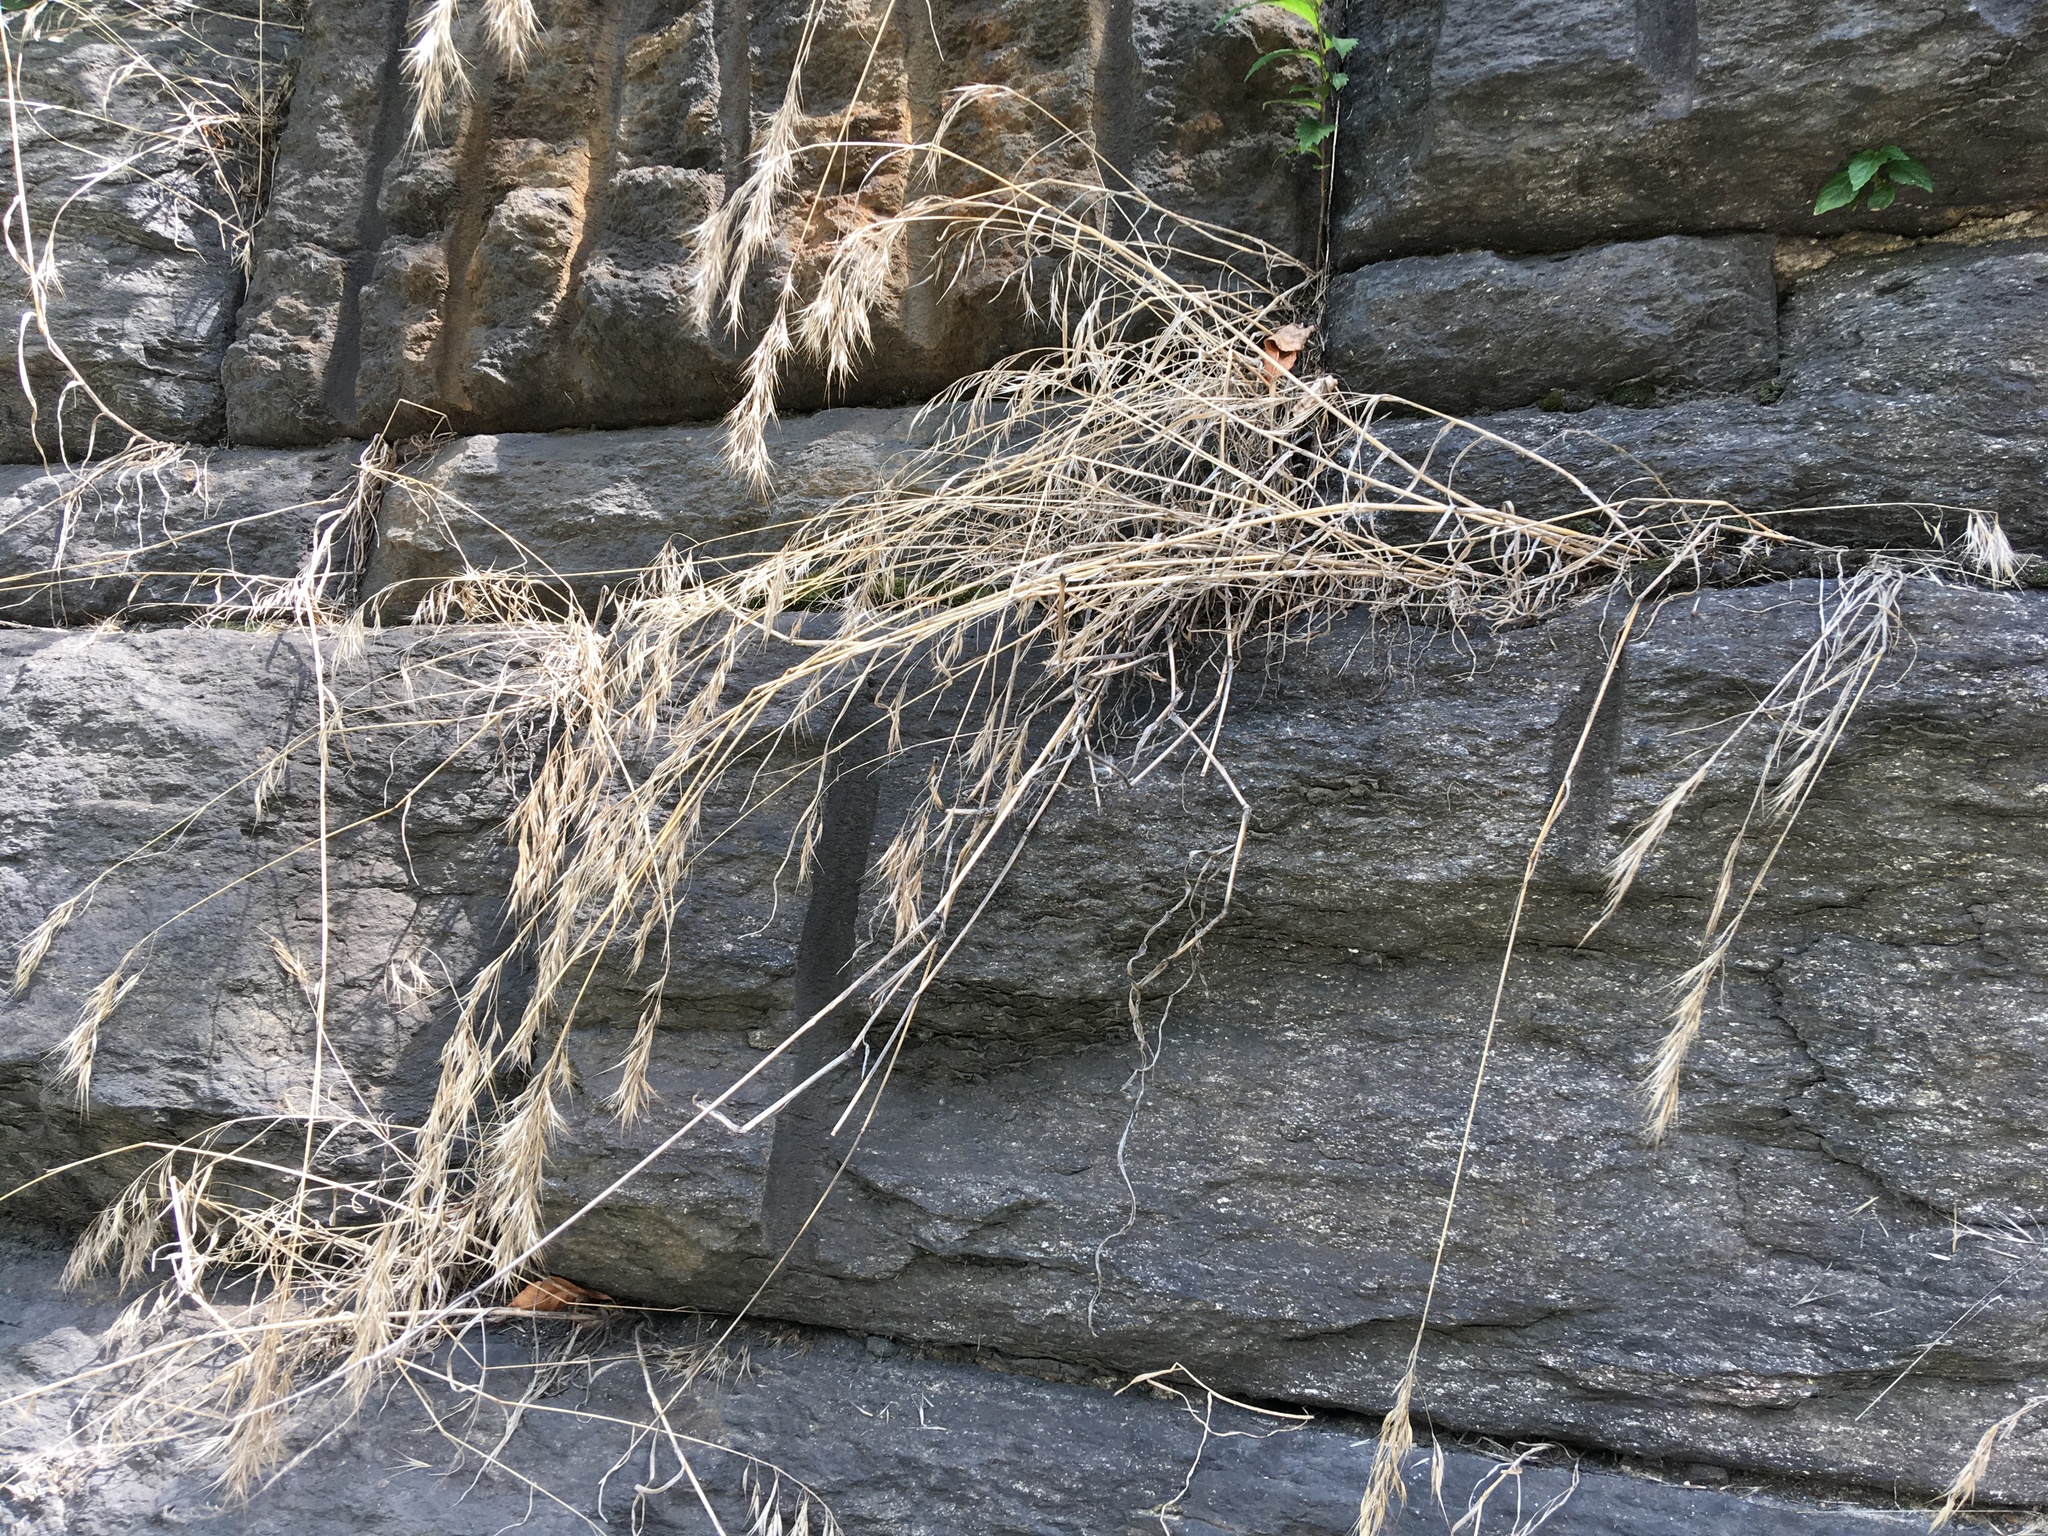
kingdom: Plantae
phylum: Tracheophyta
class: Liliopsida
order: Poales
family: Poaceae
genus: Bromus
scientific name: Bromus tectorum
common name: Cheatgrass
